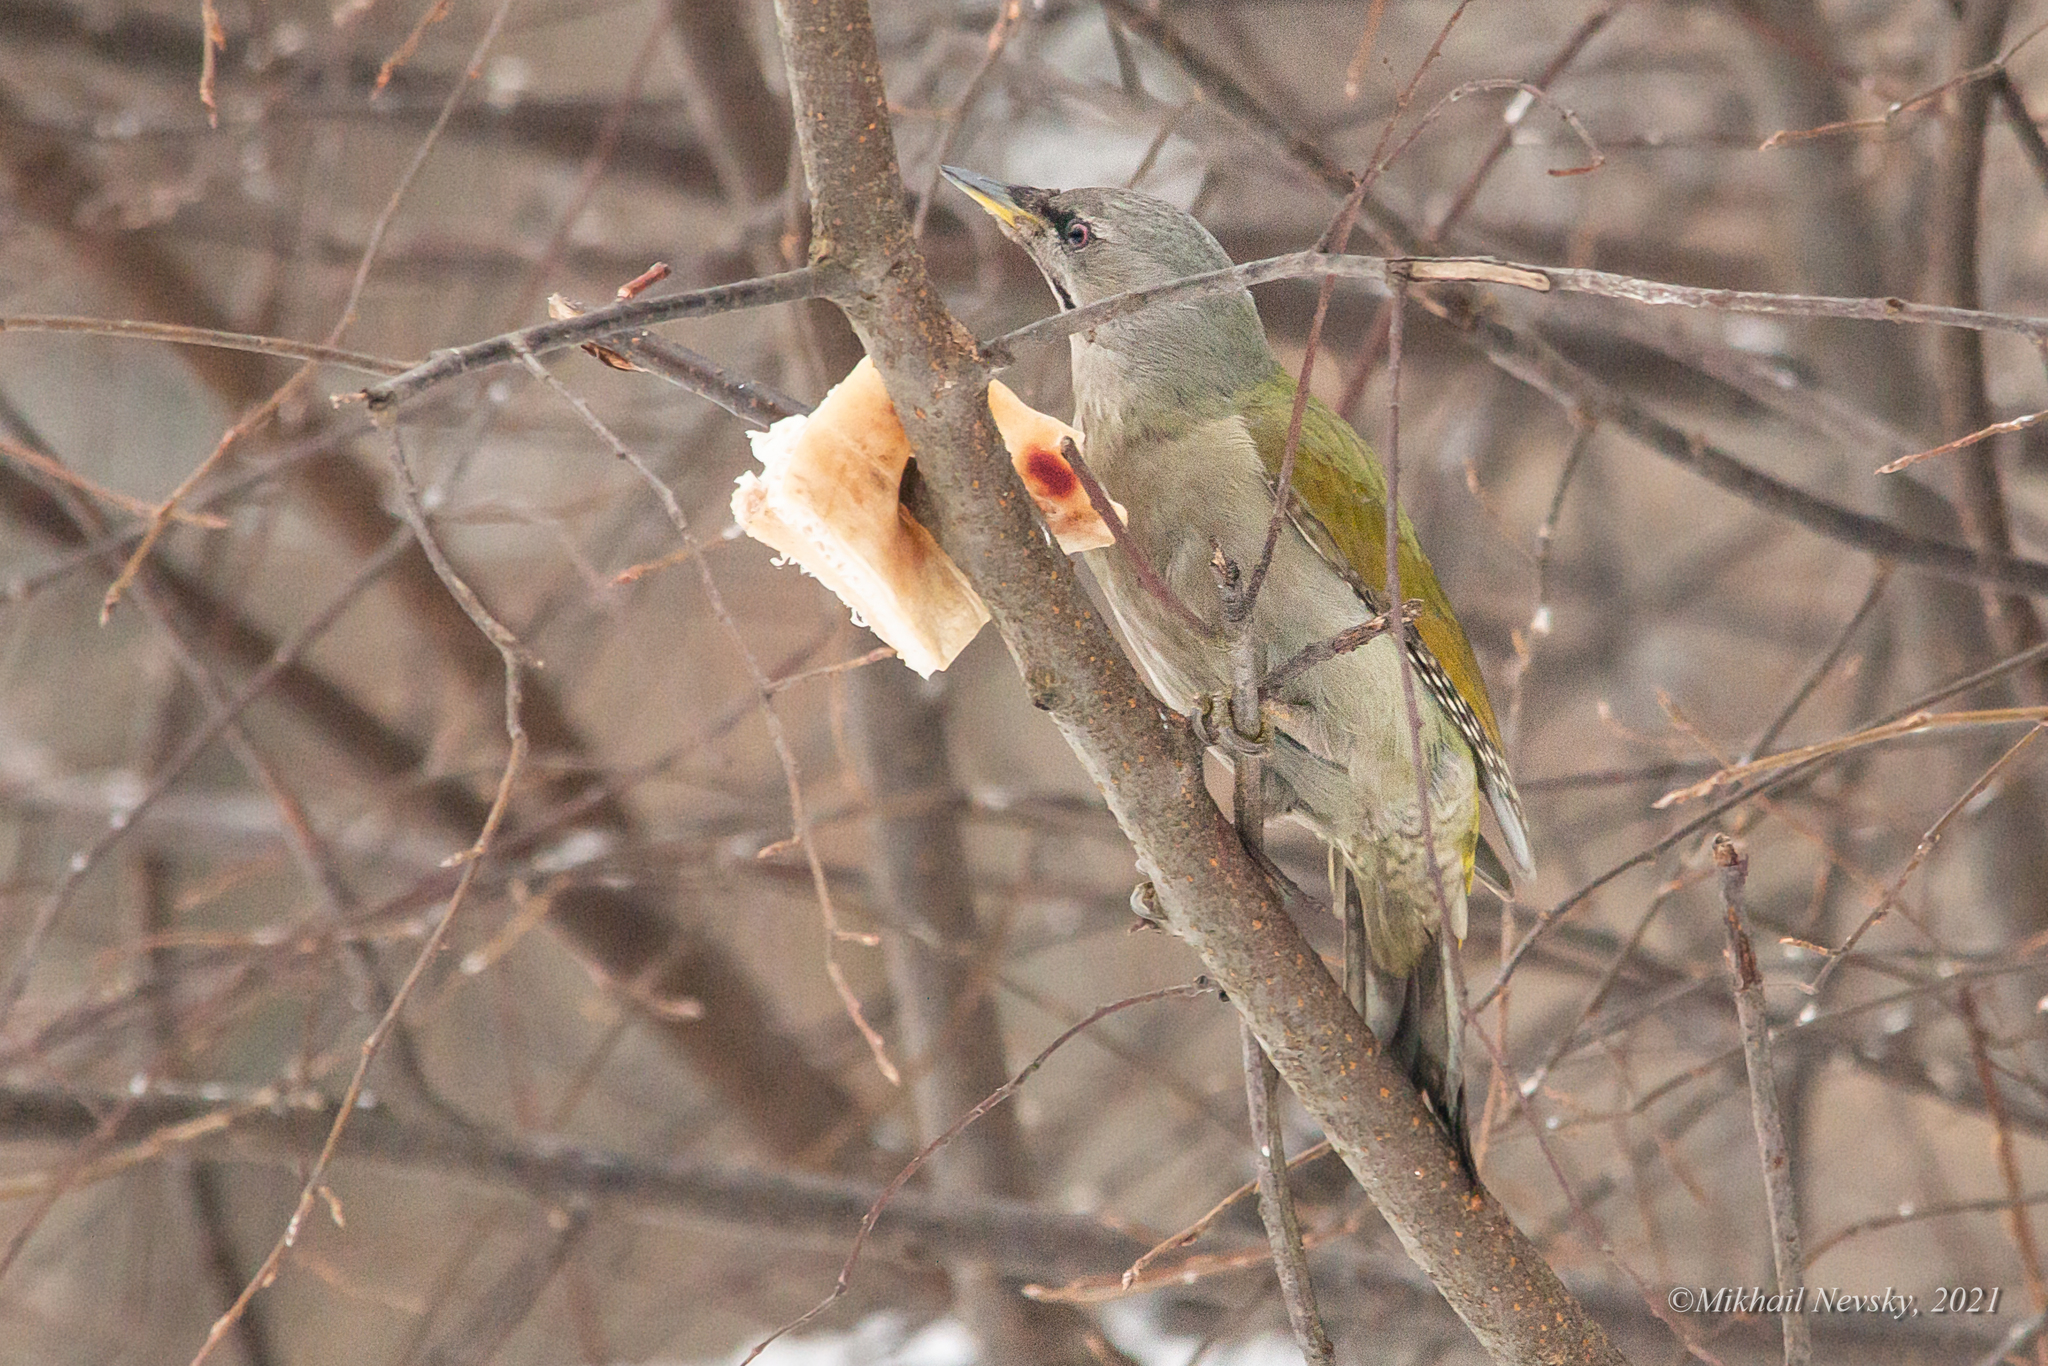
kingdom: Animalia
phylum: Chordata
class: Aves
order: Piciformes
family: Picidae
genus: Picus
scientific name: Picus canus
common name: Grey-headed woodpecker
